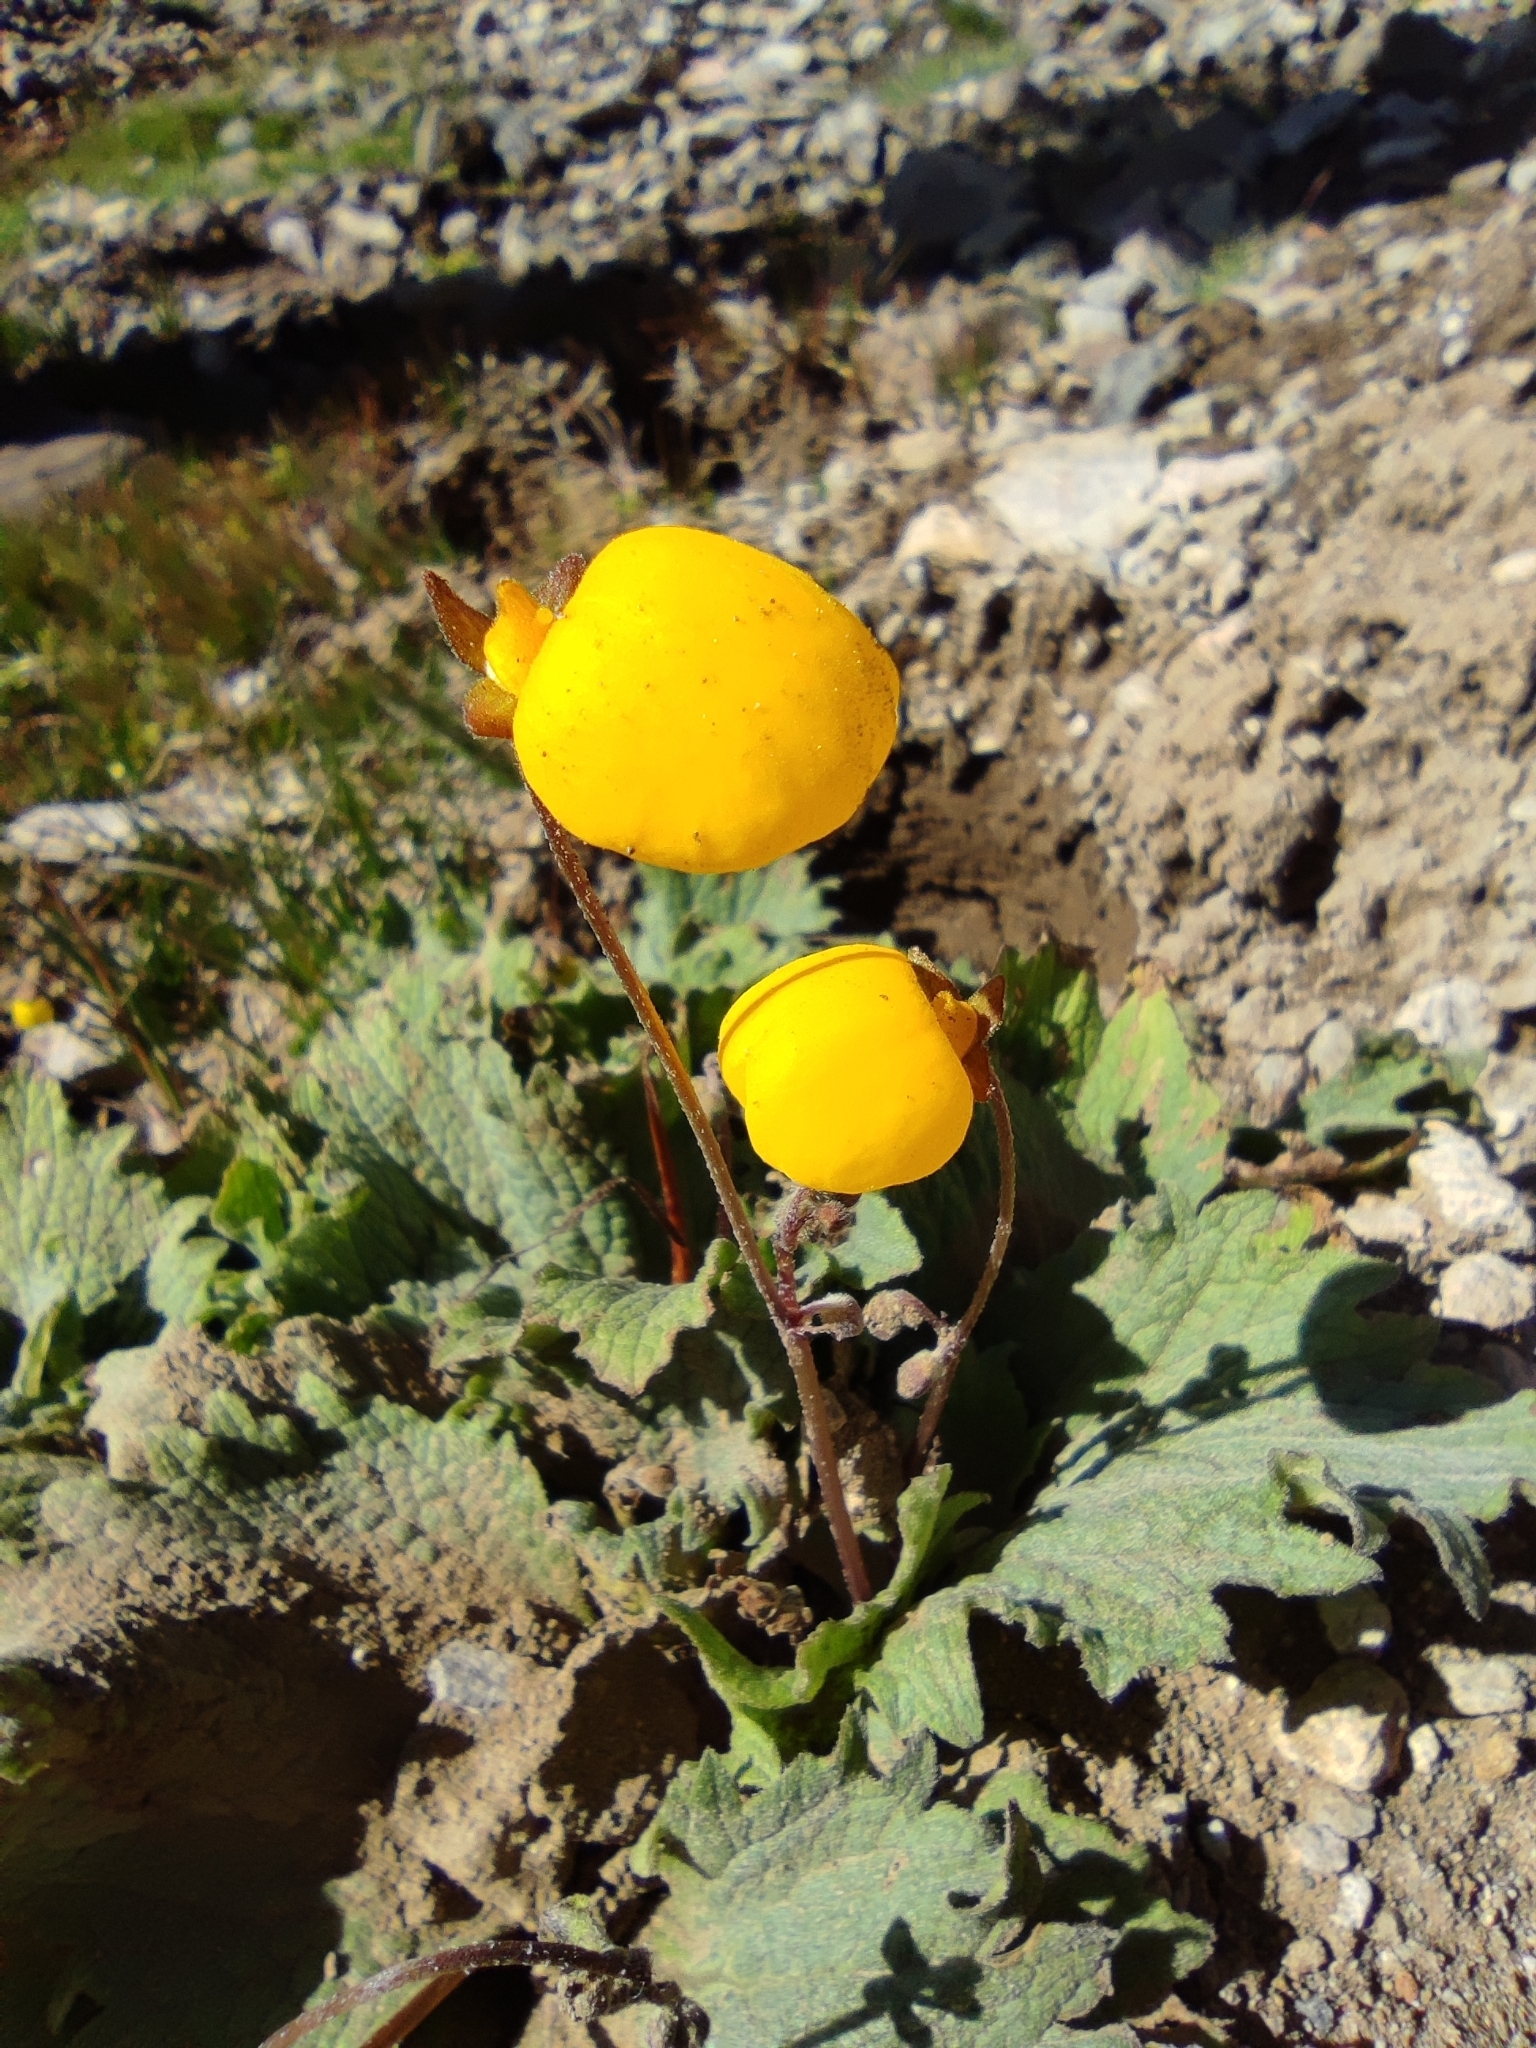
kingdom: Plantae
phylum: Tracheophyta
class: Magnoliopsida
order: Lamiales
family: Calceolariaceae
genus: Calceolaria
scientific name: Calceolaria filicaulis
